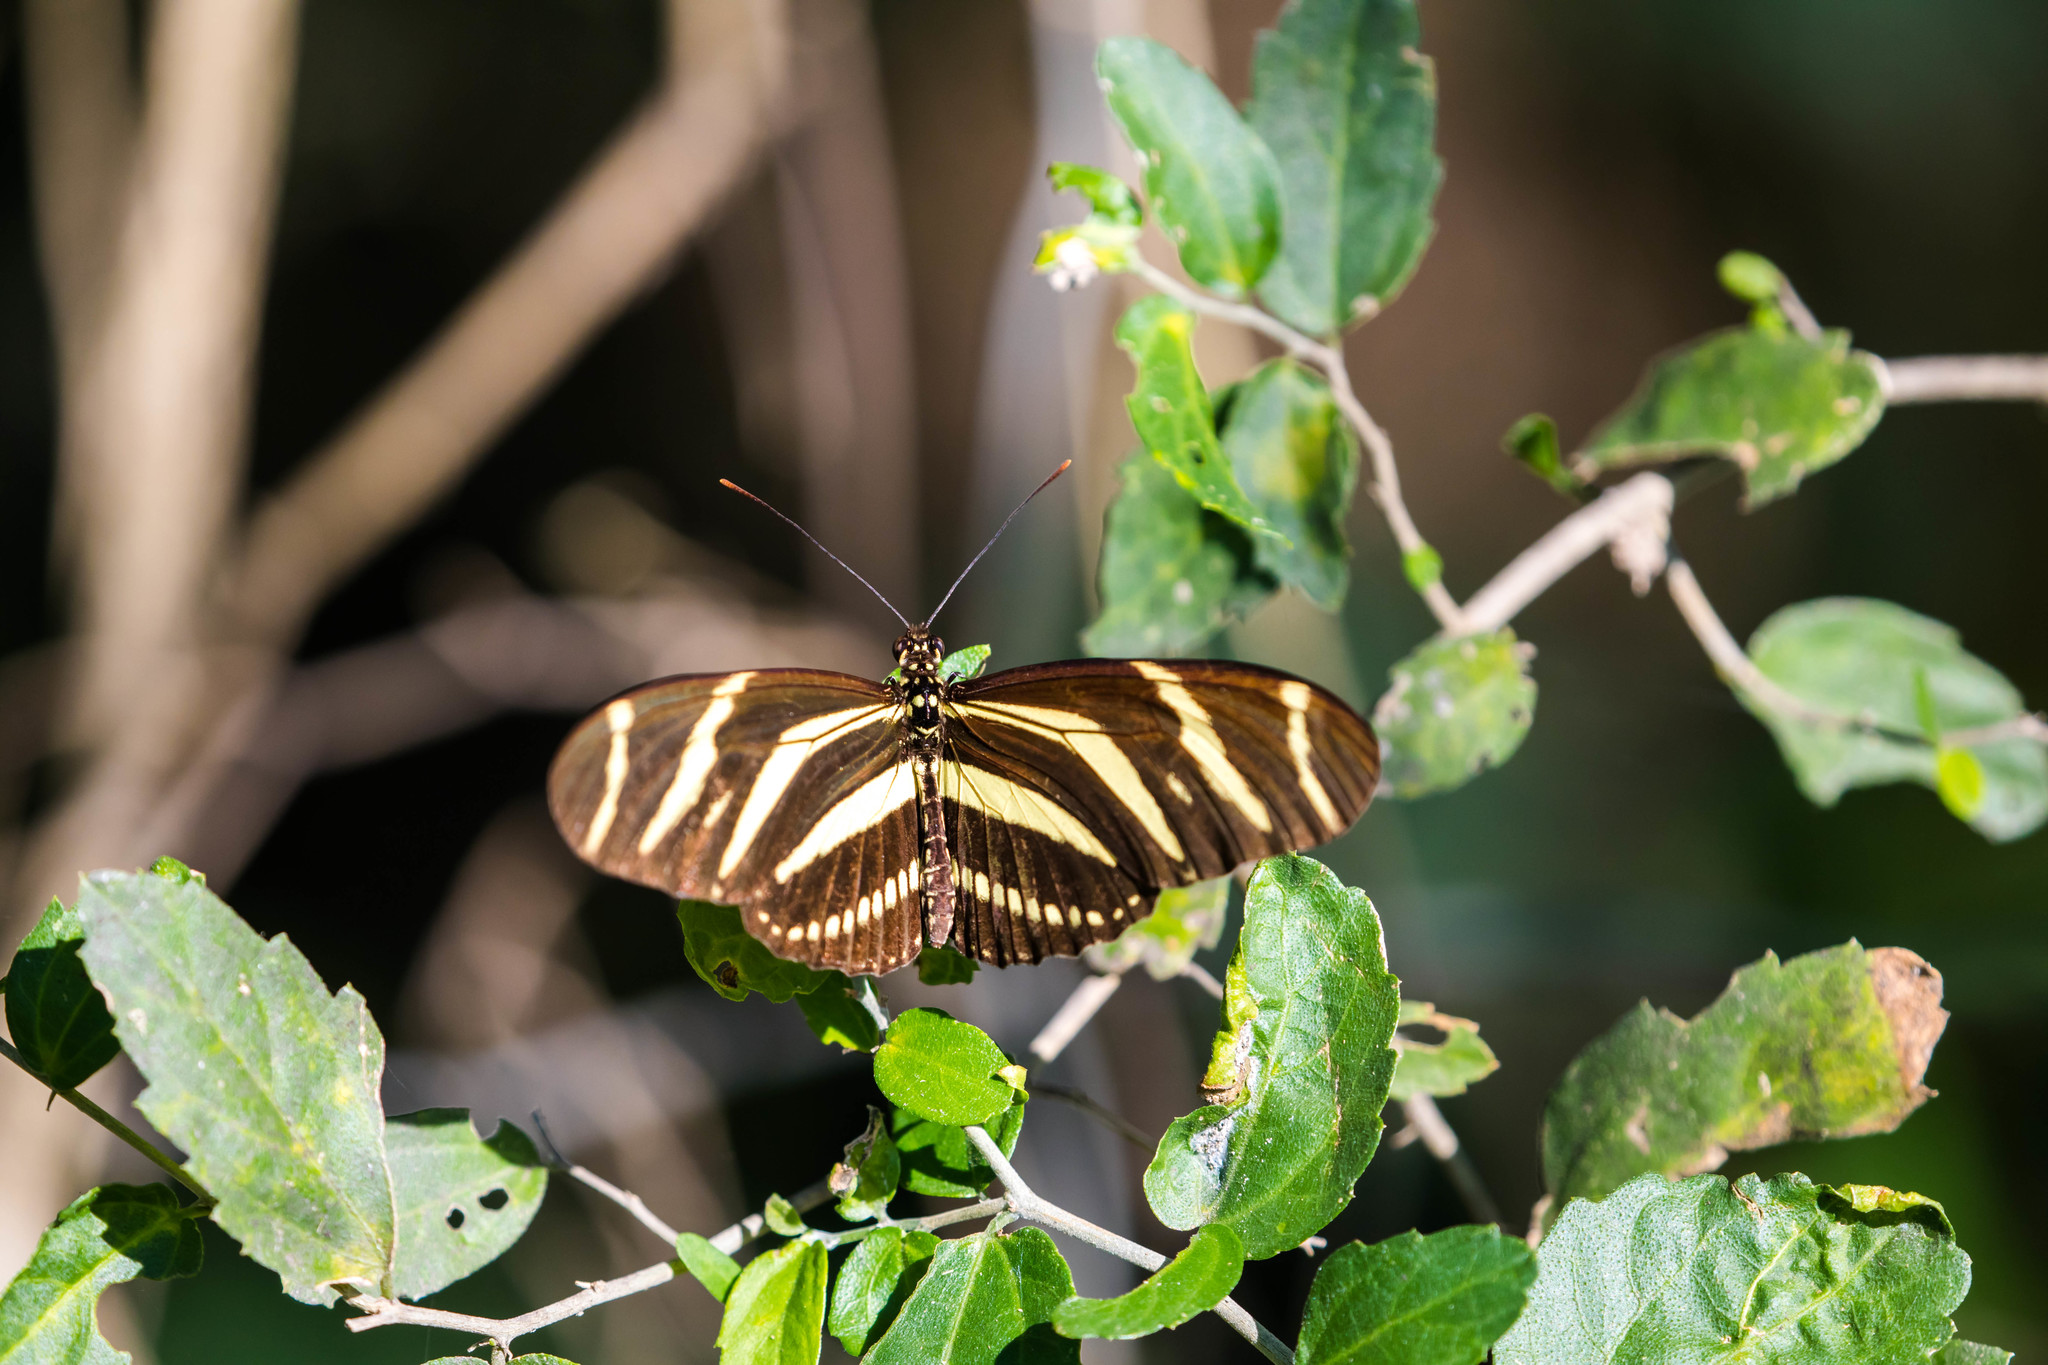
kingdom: Animalia
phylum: Arthropoda
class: Insecta
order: Lepidoptera
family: Nymphalidae
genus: Heliconius
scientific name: Heliconius charithonia
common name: Zebra long wing
